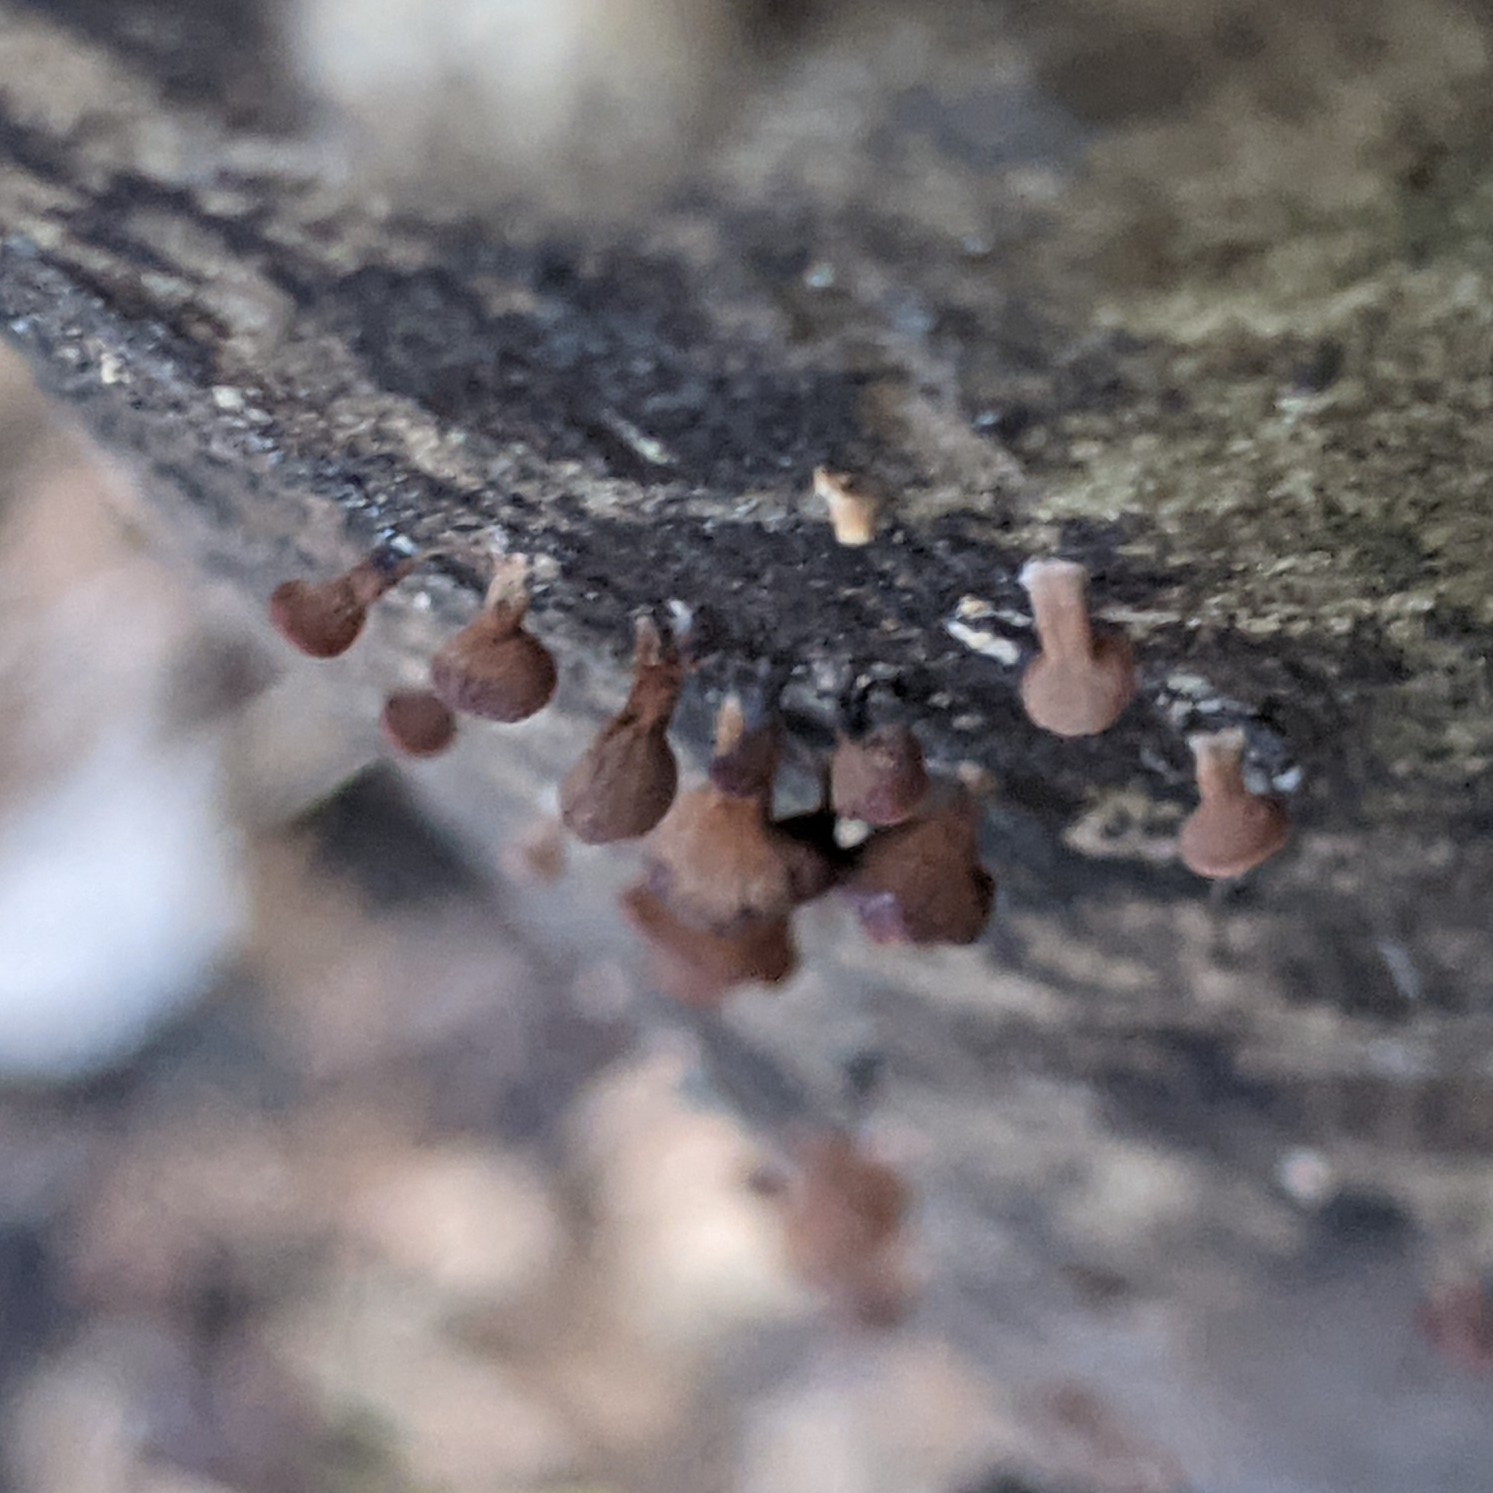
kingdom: Fungi
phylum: Basidiomycota
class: Dacrymycetes
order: Dacrymycetales
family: Dacrymycetaceae
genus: Dacryopinax
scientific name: Dacryopinax elegans
